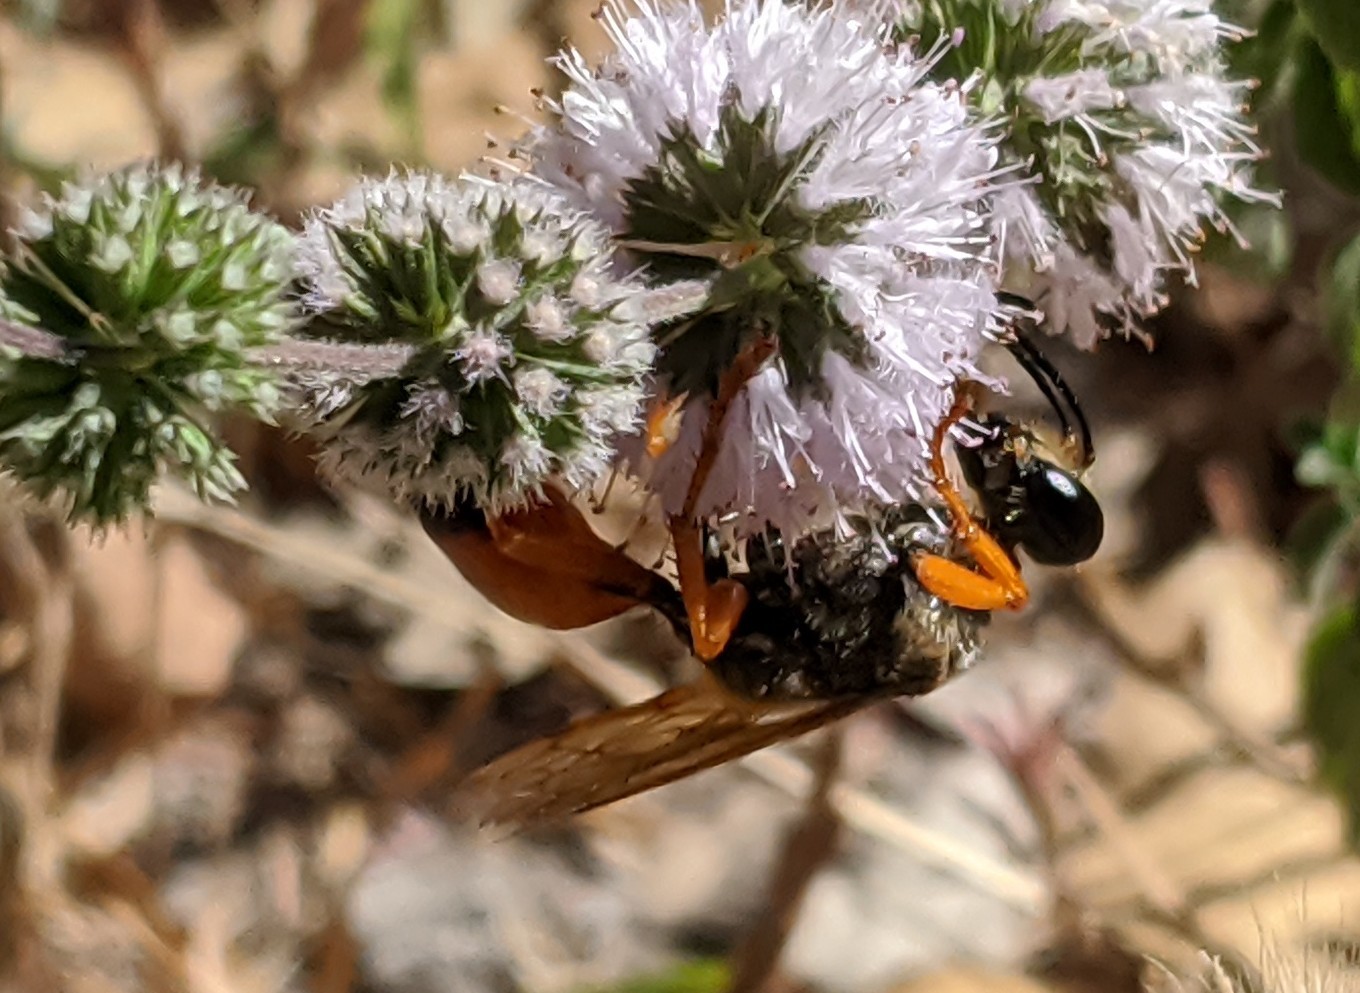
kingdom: Animalia
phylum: Arthropoda
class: Insecta
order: Hymenoptera
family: Sphecidae
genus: Sphex
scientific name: Sphex ichneumoneus
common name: Great golden digger wasp
